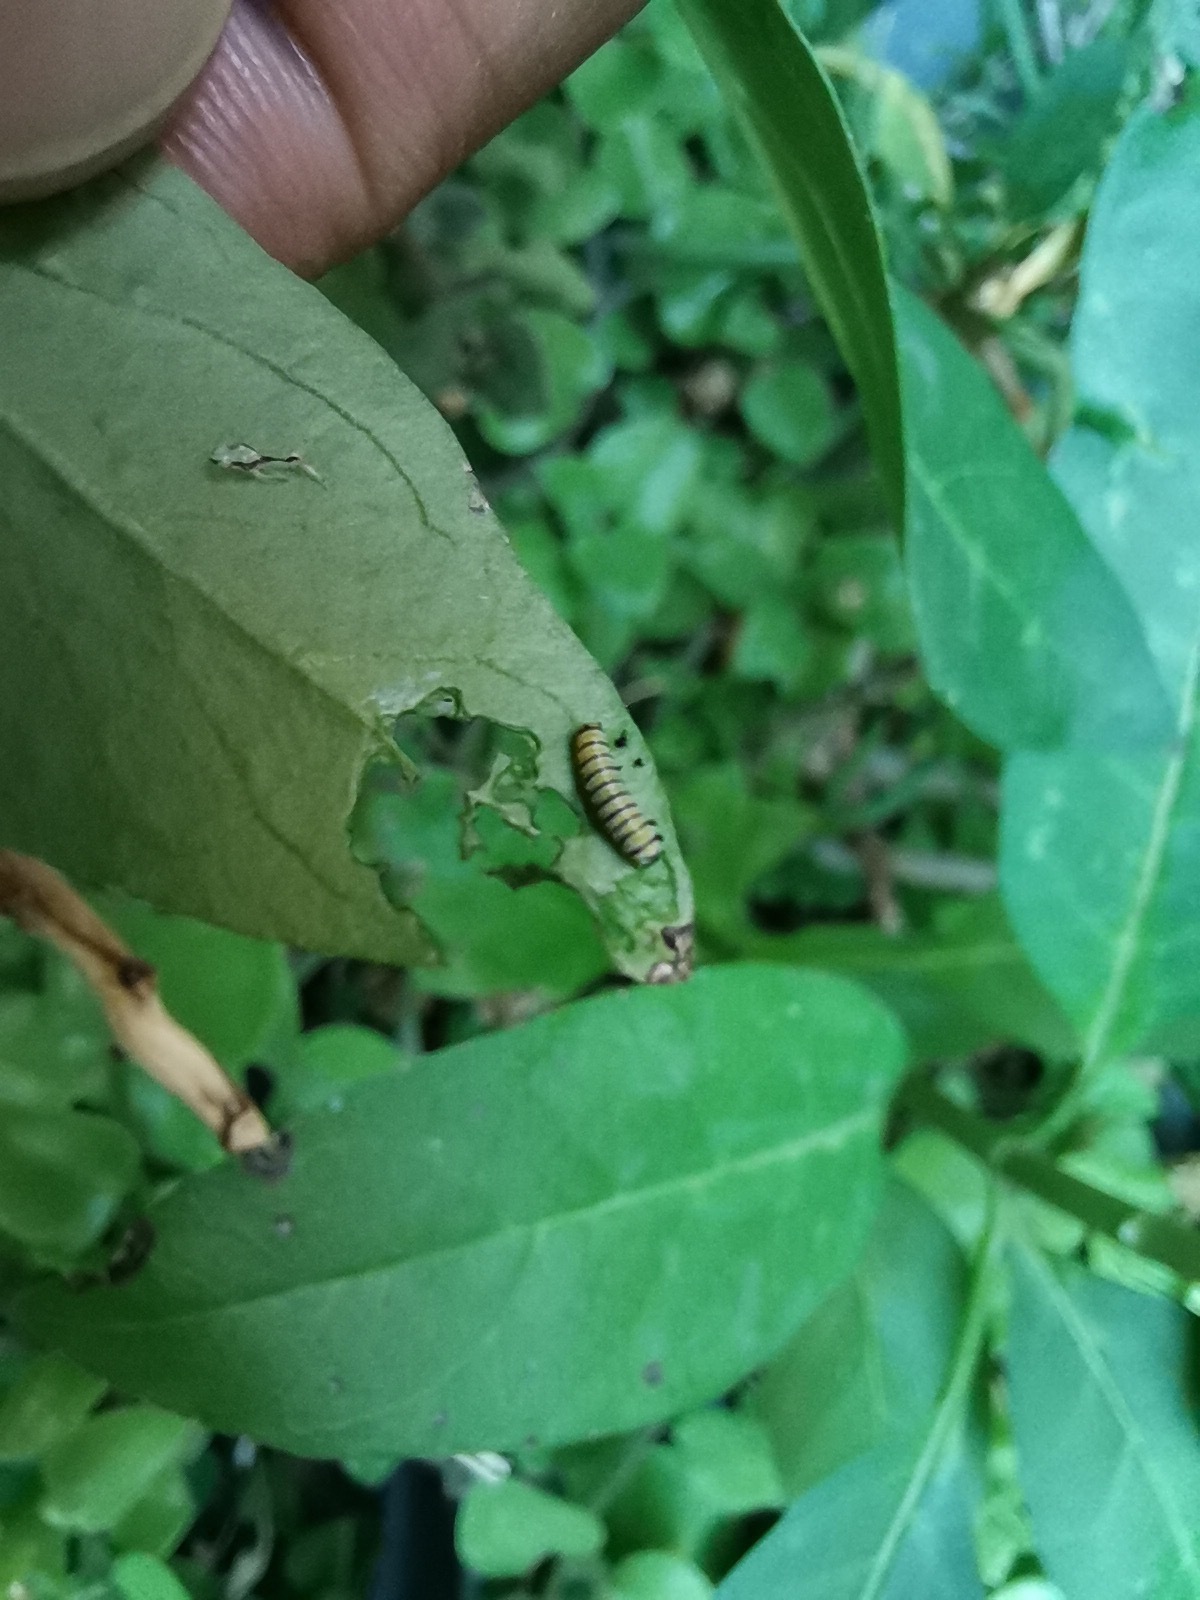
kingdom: Animalia
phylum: Arthropoda
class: Insecta
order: Lepidoptera
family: Nymphalidae
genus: Danaus
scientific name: Danaus plexippus
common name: Monarch
